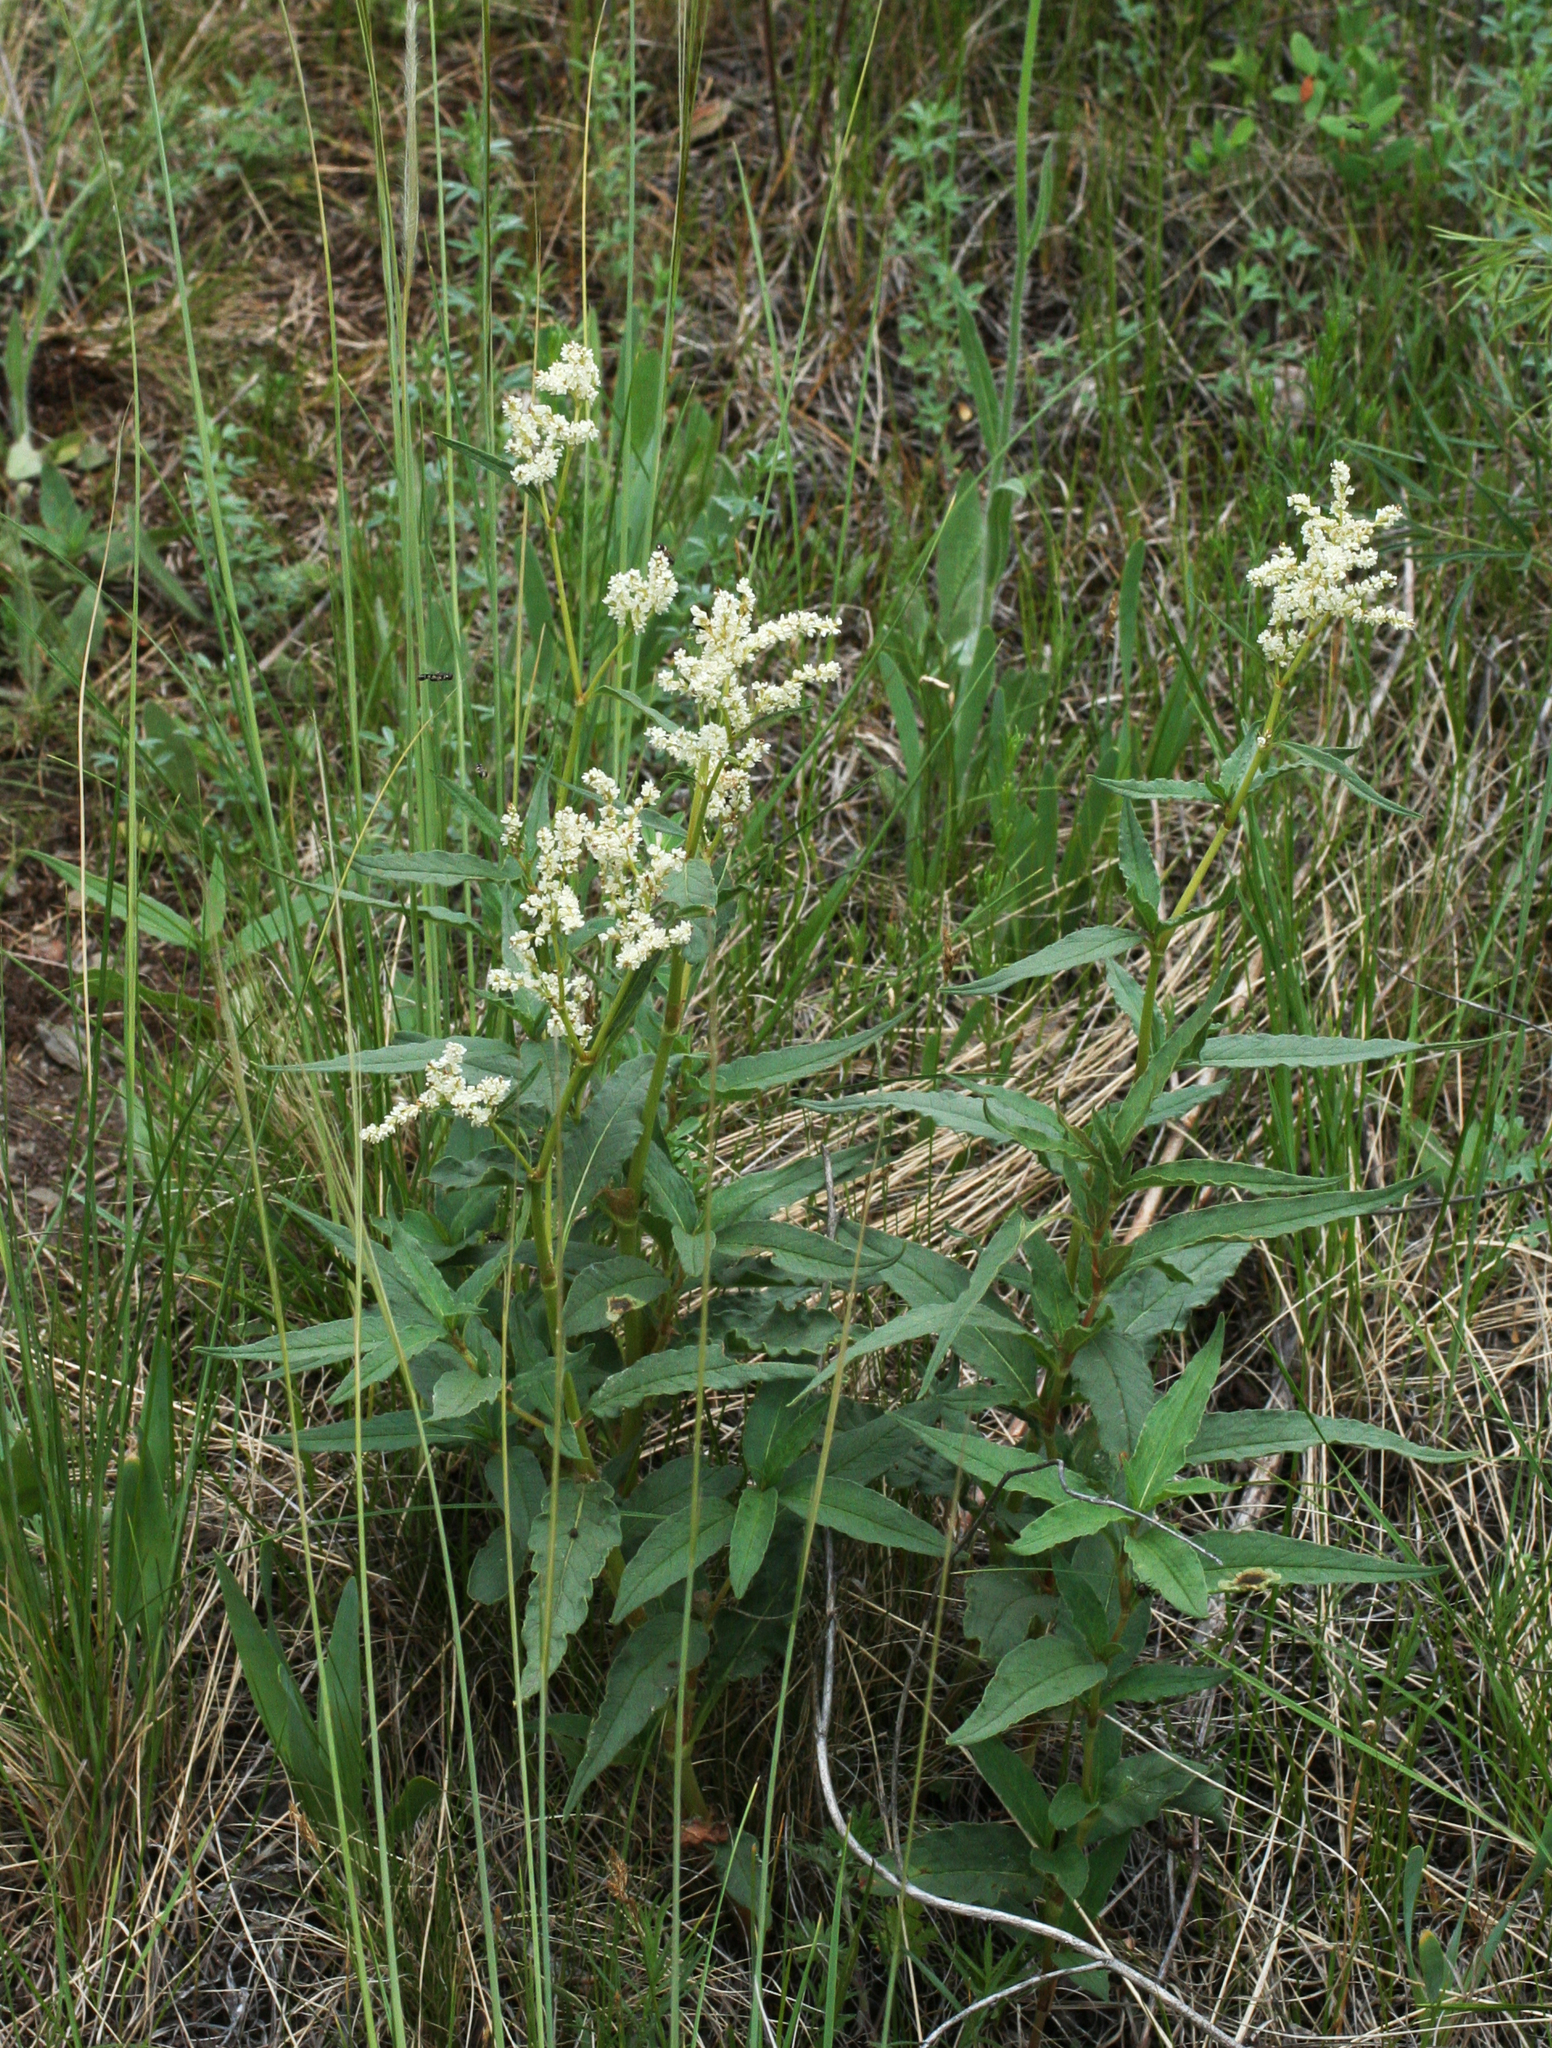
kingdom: Plantae
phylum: Tracheophyta
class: Magnoliopsida
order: Caryophyllales
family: Polygonaceae
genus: Koenigia
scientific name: Koenigia alpina
